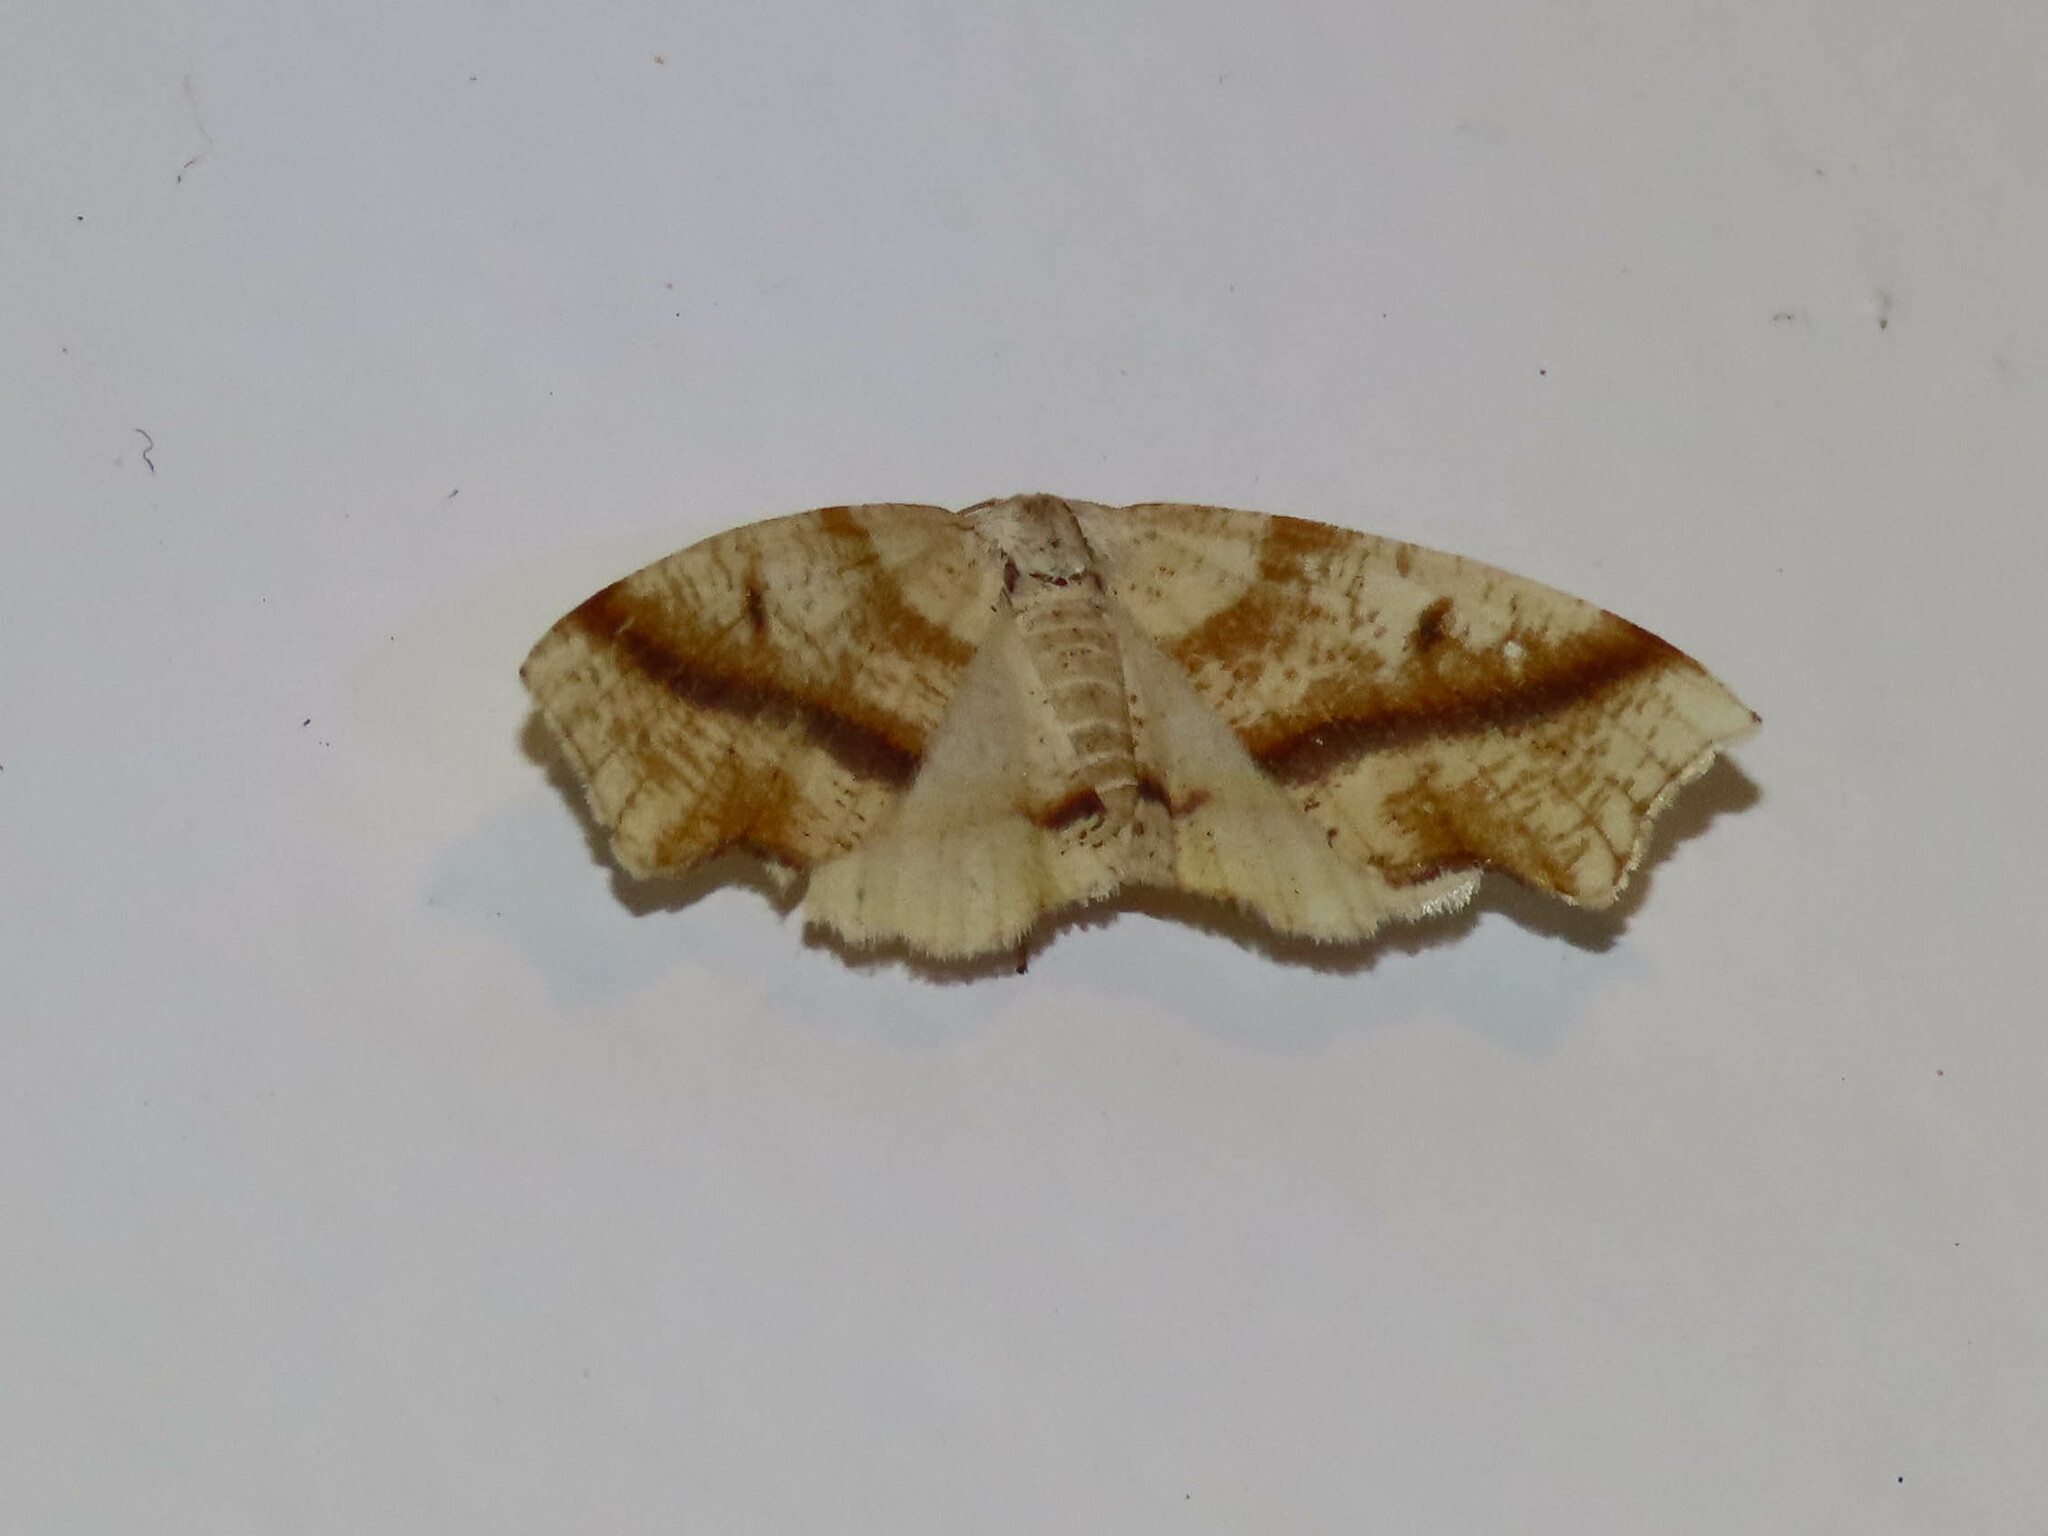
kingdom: Animalia
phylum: Arthropoda
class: Insecta
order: Lepidoptera
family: Geometridae
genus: Plagodis
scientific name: Plagodis alcoolaria
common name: Hollow-spotted plagodis
